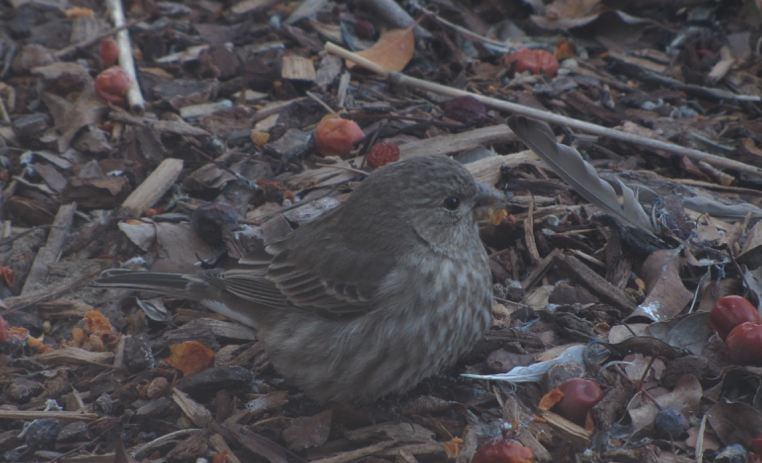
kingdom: Animalia
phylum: Chordata
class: Aves
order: Passeriformes
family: Fringillidae
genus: Haemorhous
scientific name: Haemorhous mexicanus
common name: House finch
